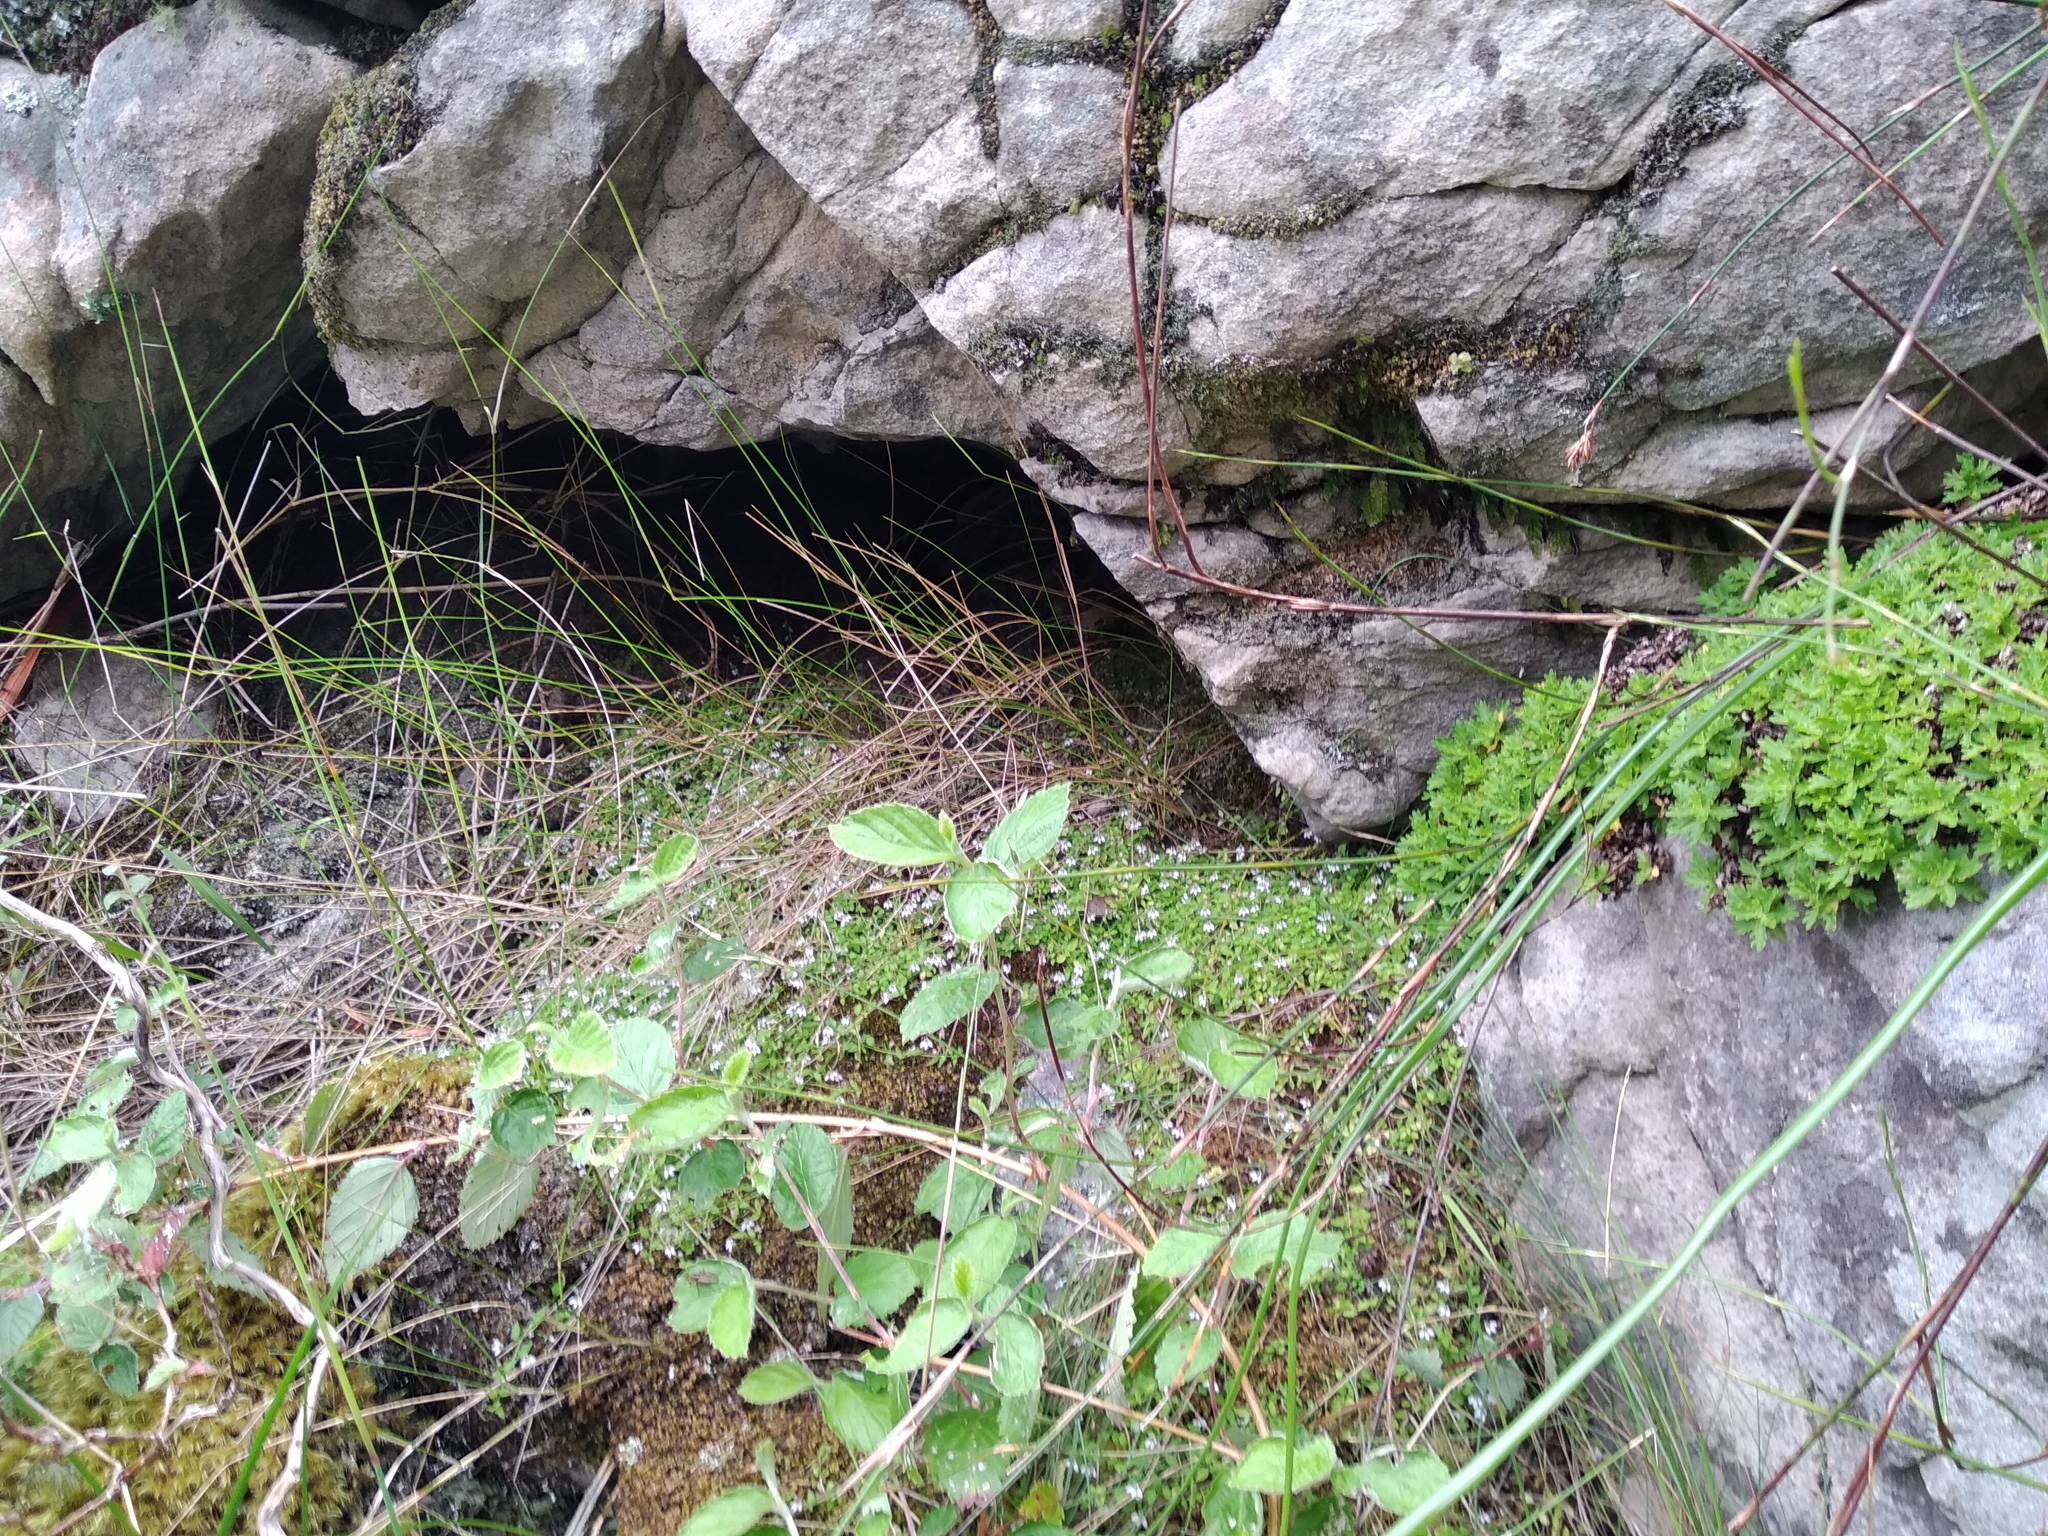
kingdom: Plantae
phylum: Tracheophyta
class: Magnoliopsida
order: Asterales
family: Campanulaceae
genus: Unigenes
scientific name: Unigenes humifusa
